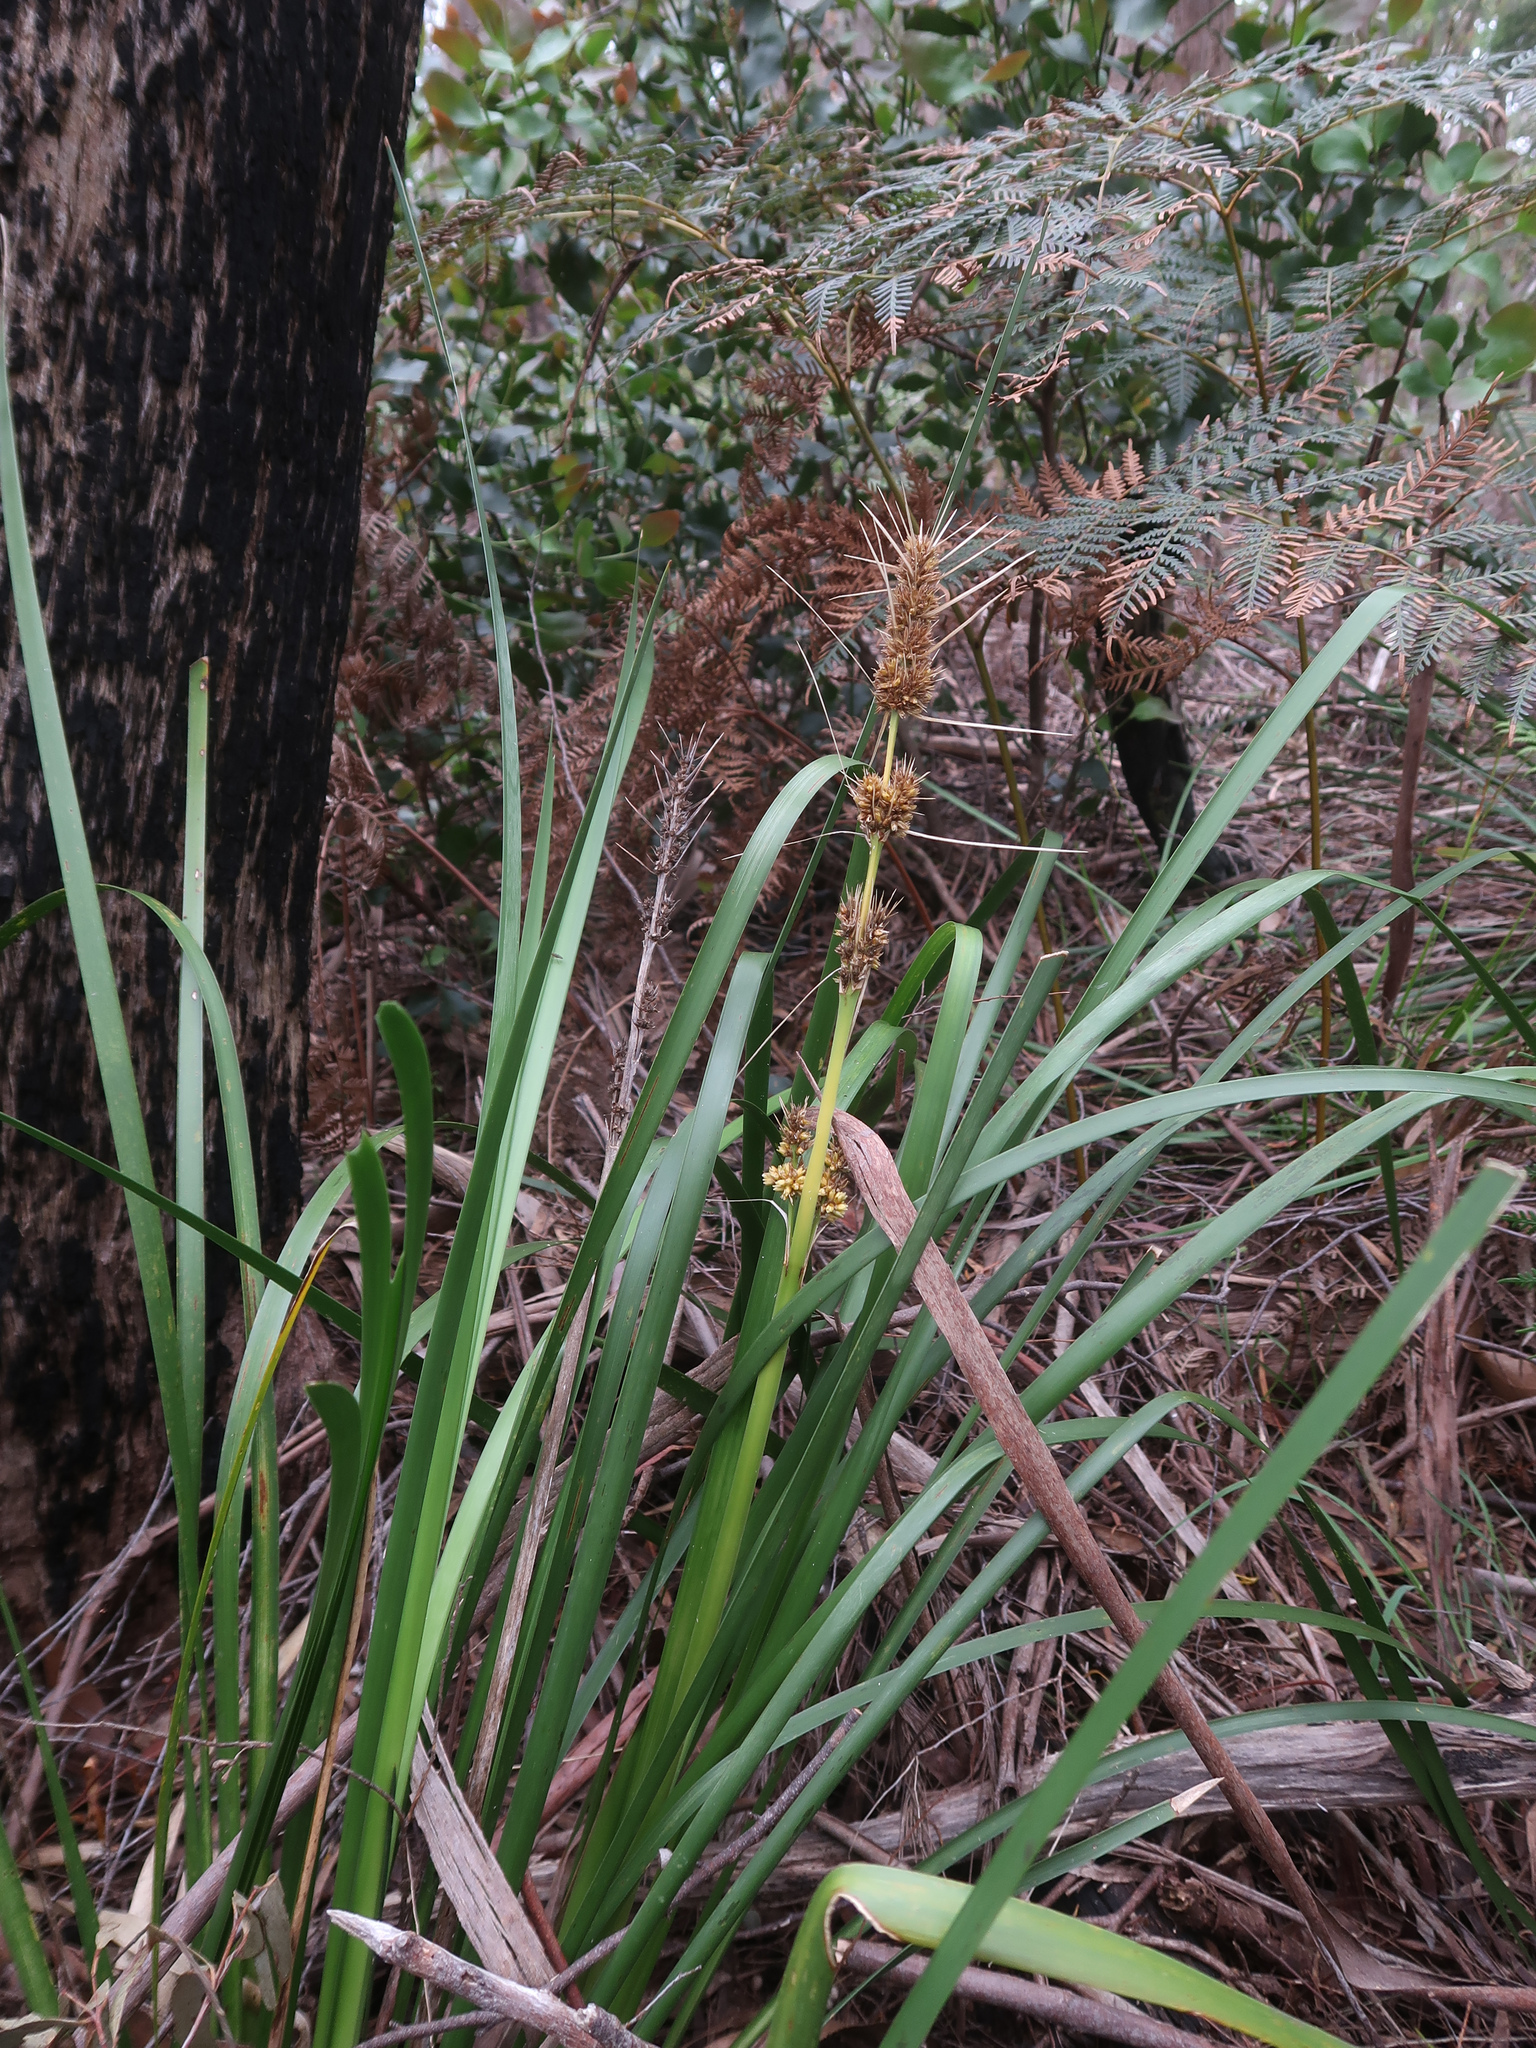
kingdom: Plantae
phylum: Tracheophyta
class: Liliopsida
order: Asparagales
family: Asparagaceae
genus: Lomandra
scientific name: Lomandra longifolia
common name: Longleaf mat-rush
